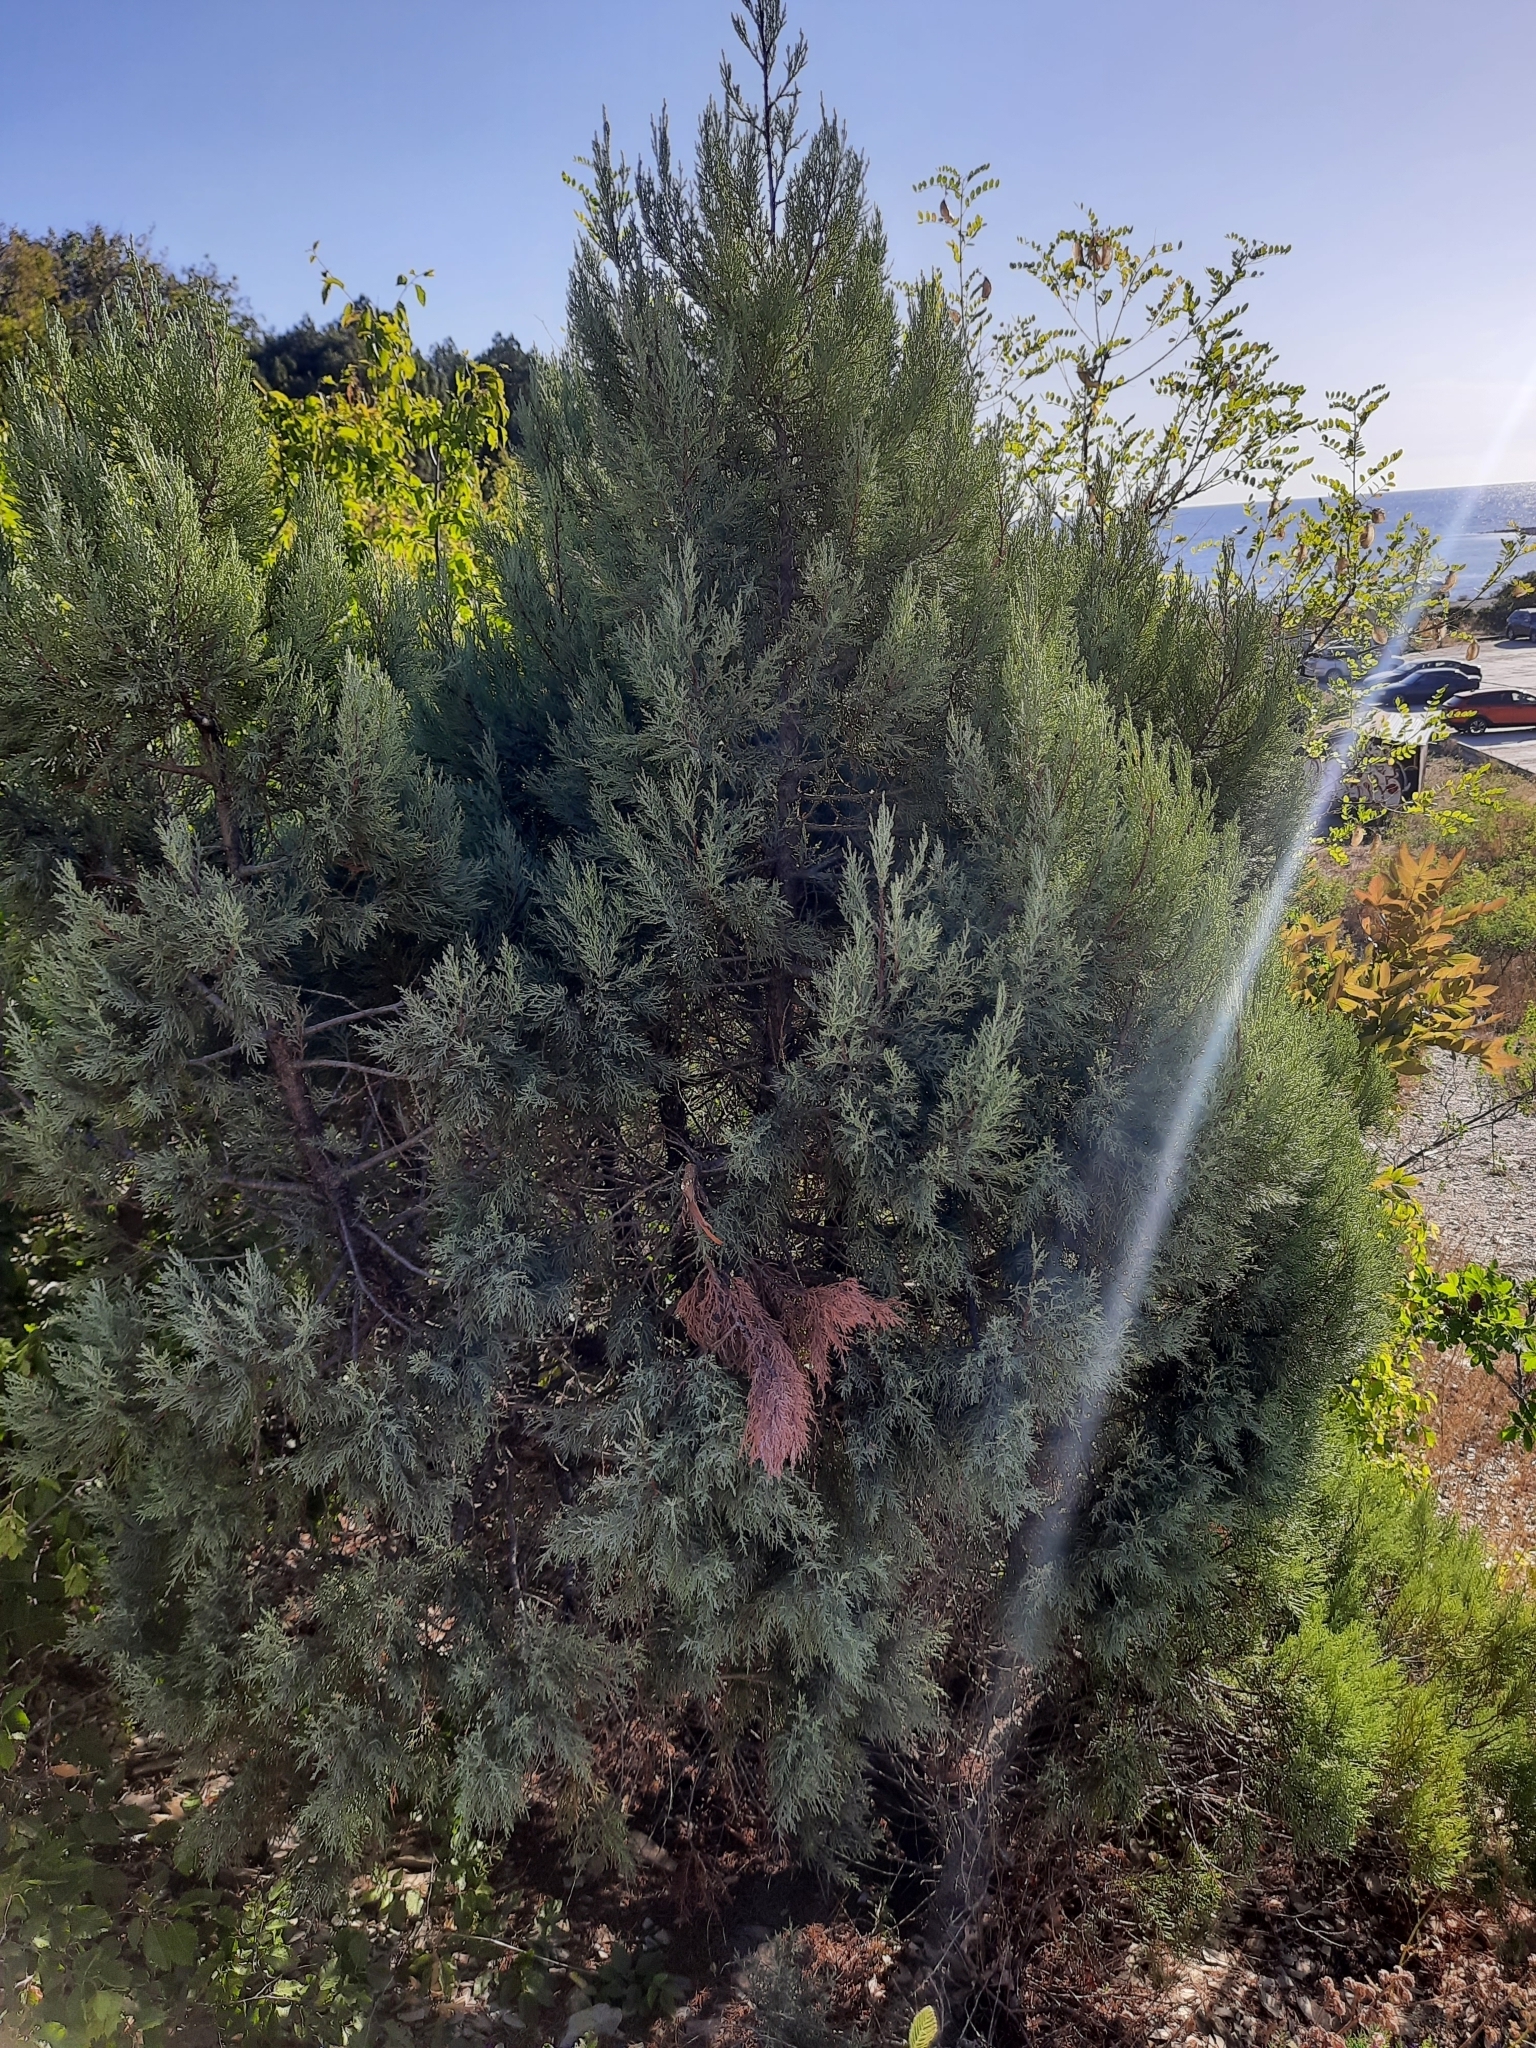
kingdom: Plantae
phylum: Tracheophyta
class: Pinopsida
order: Pinales
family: Cupressaceae
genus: Juniperus
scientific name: Juniperus excelsa
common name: Crimean juniper
